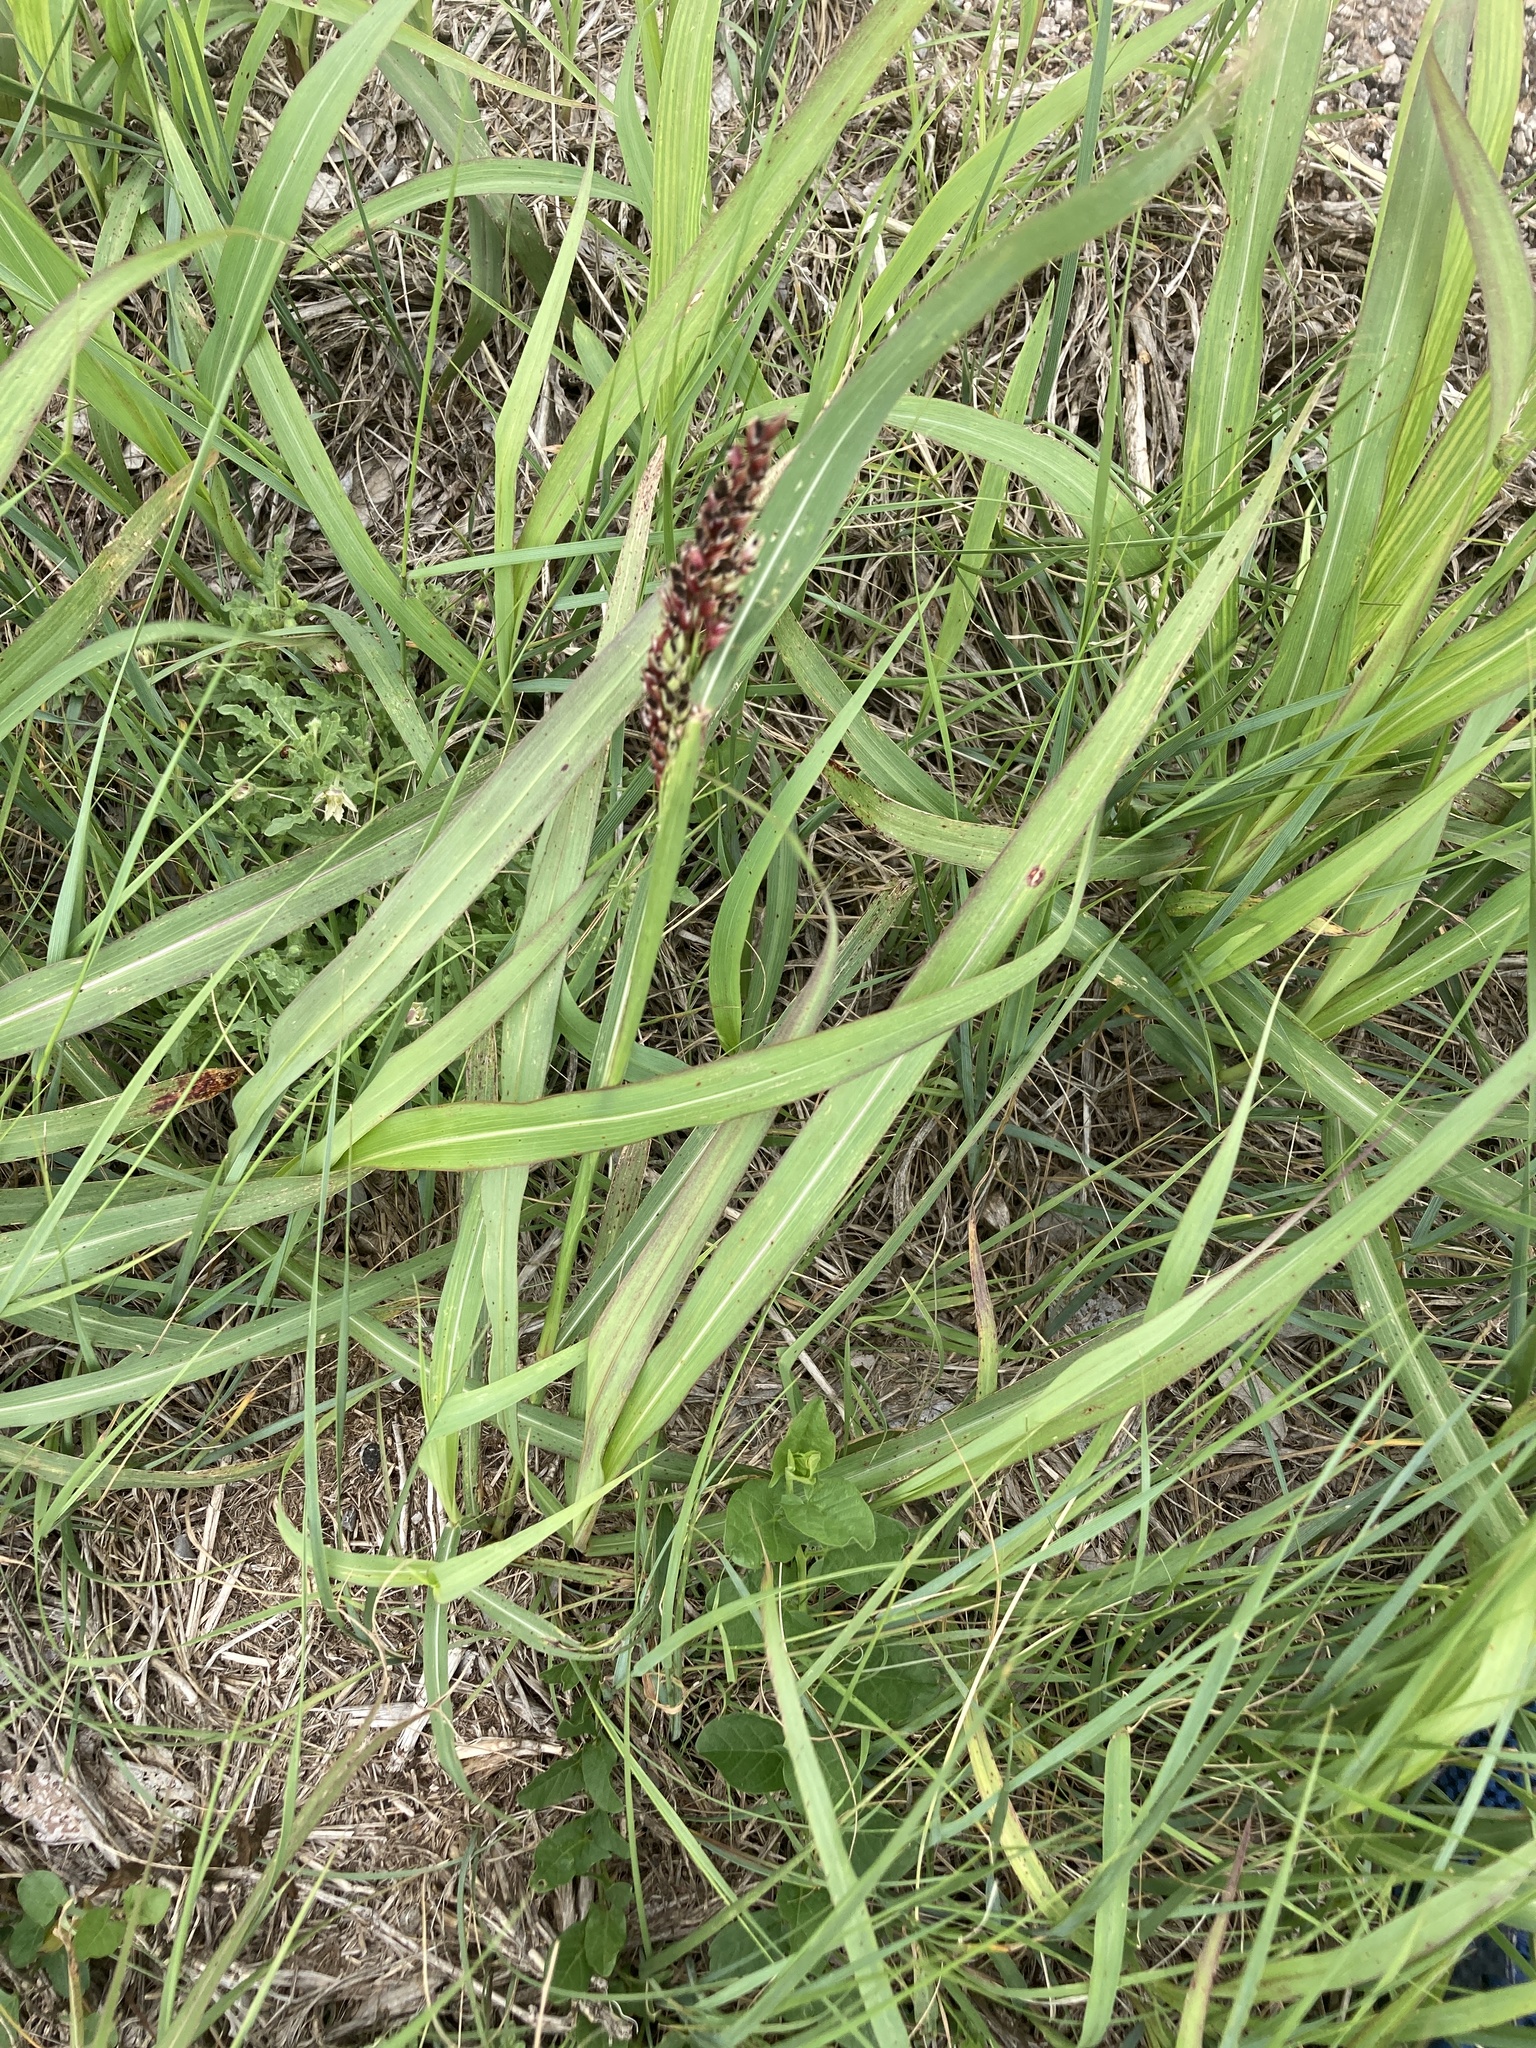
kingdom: Plantae
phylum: Tracheophyta
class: Liliopsida
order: Poales
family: Poaceae
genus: Sorghum
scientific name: Sorghum halepense
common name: Johnson-grass
